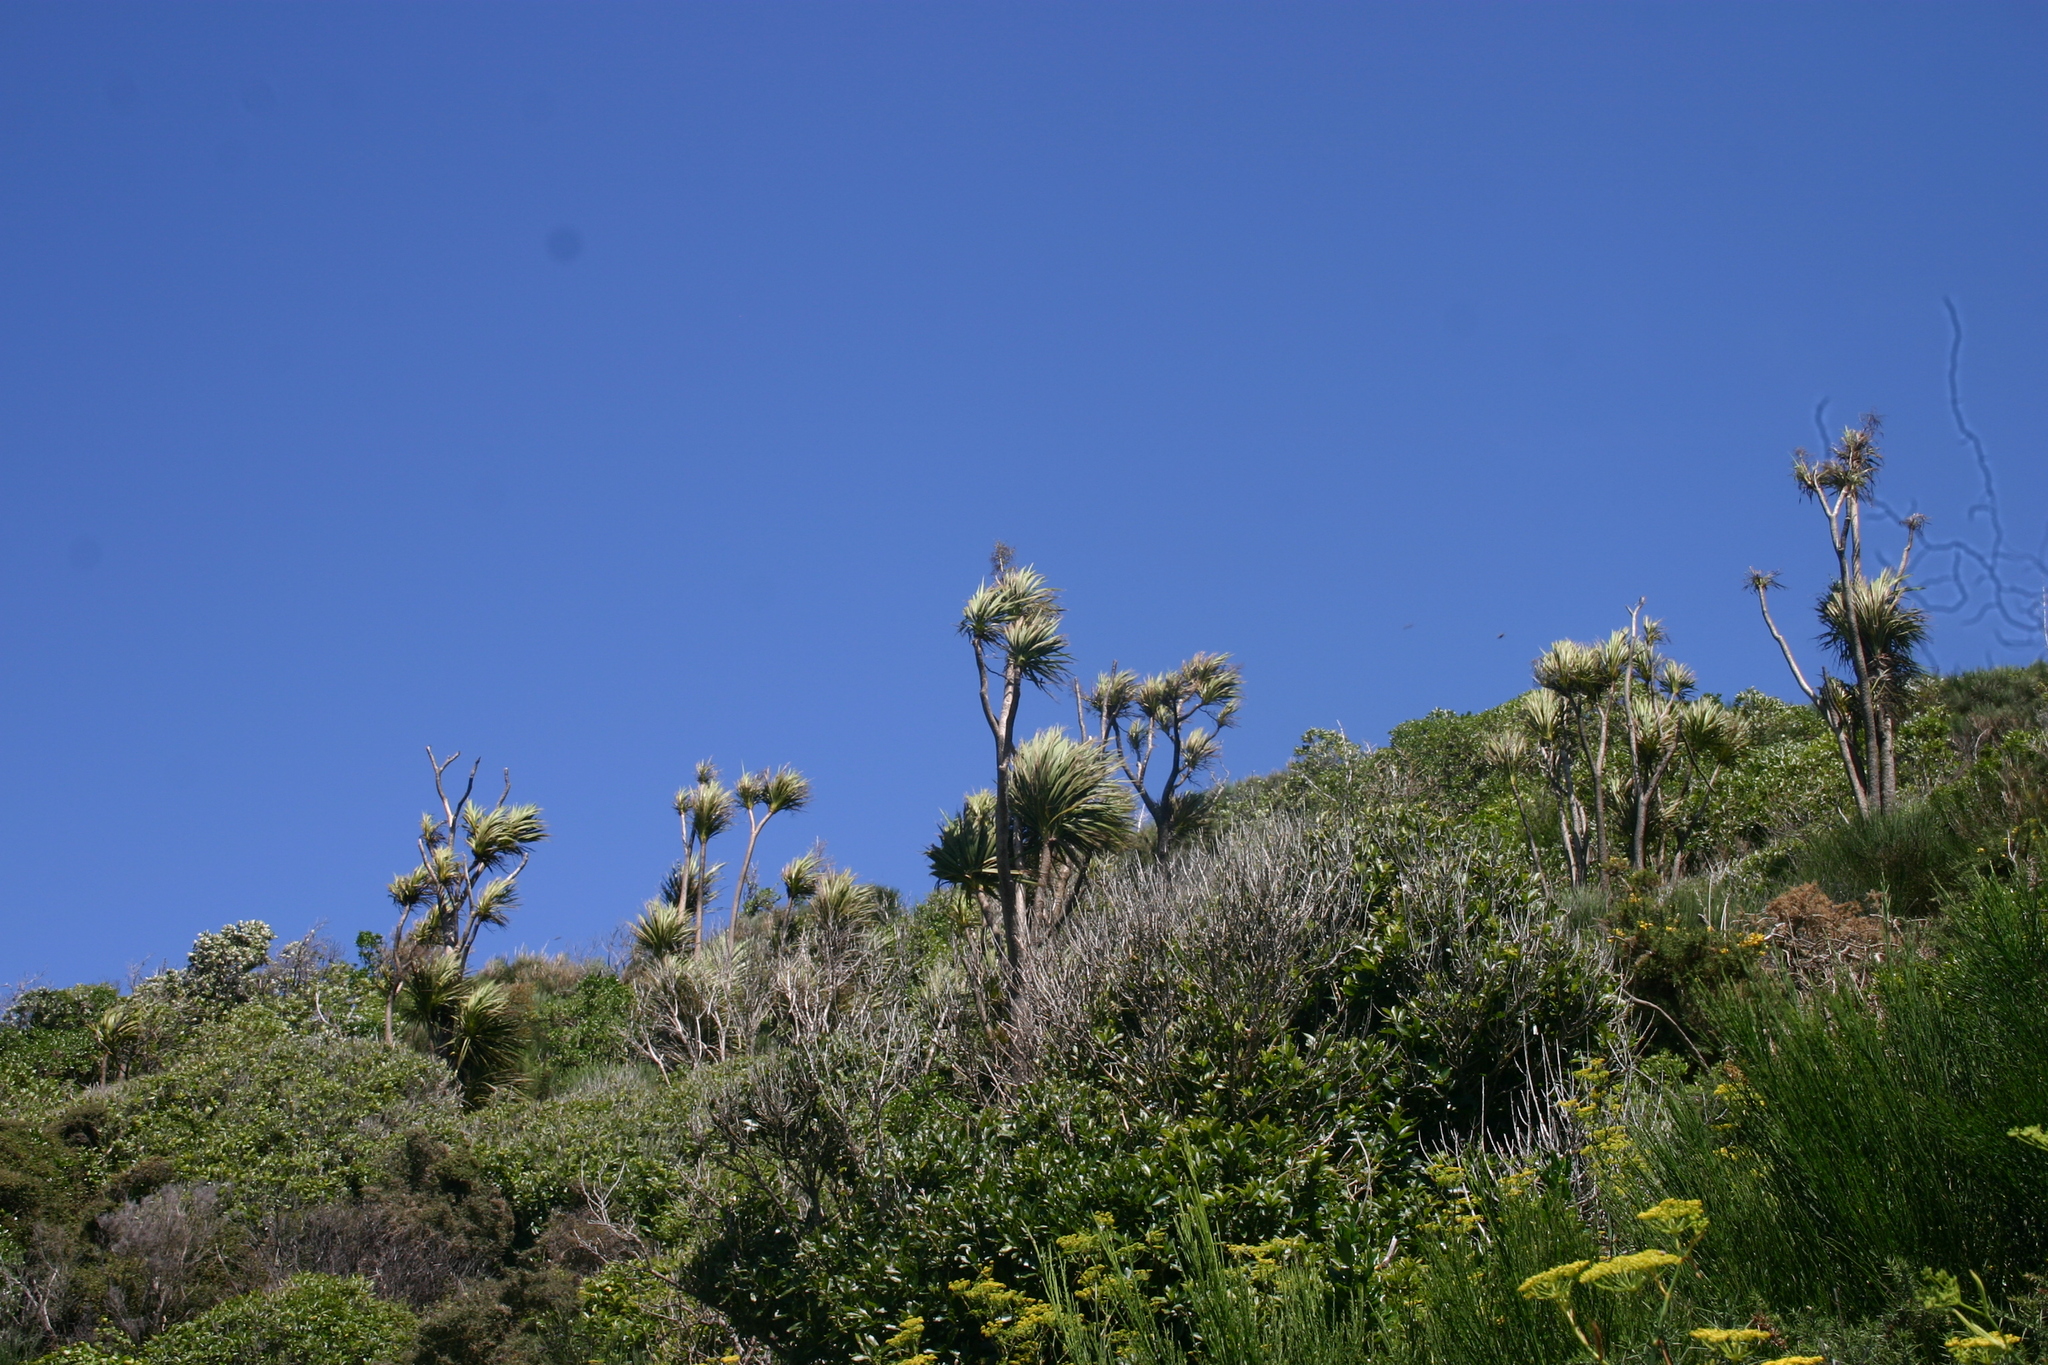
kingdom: Plantae
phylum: Tracheophyta
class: Liliopsida
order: Asparagales
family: Asparagaceae
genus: Cordyline
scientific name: Cordyline australis
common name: Cabbage-palm
